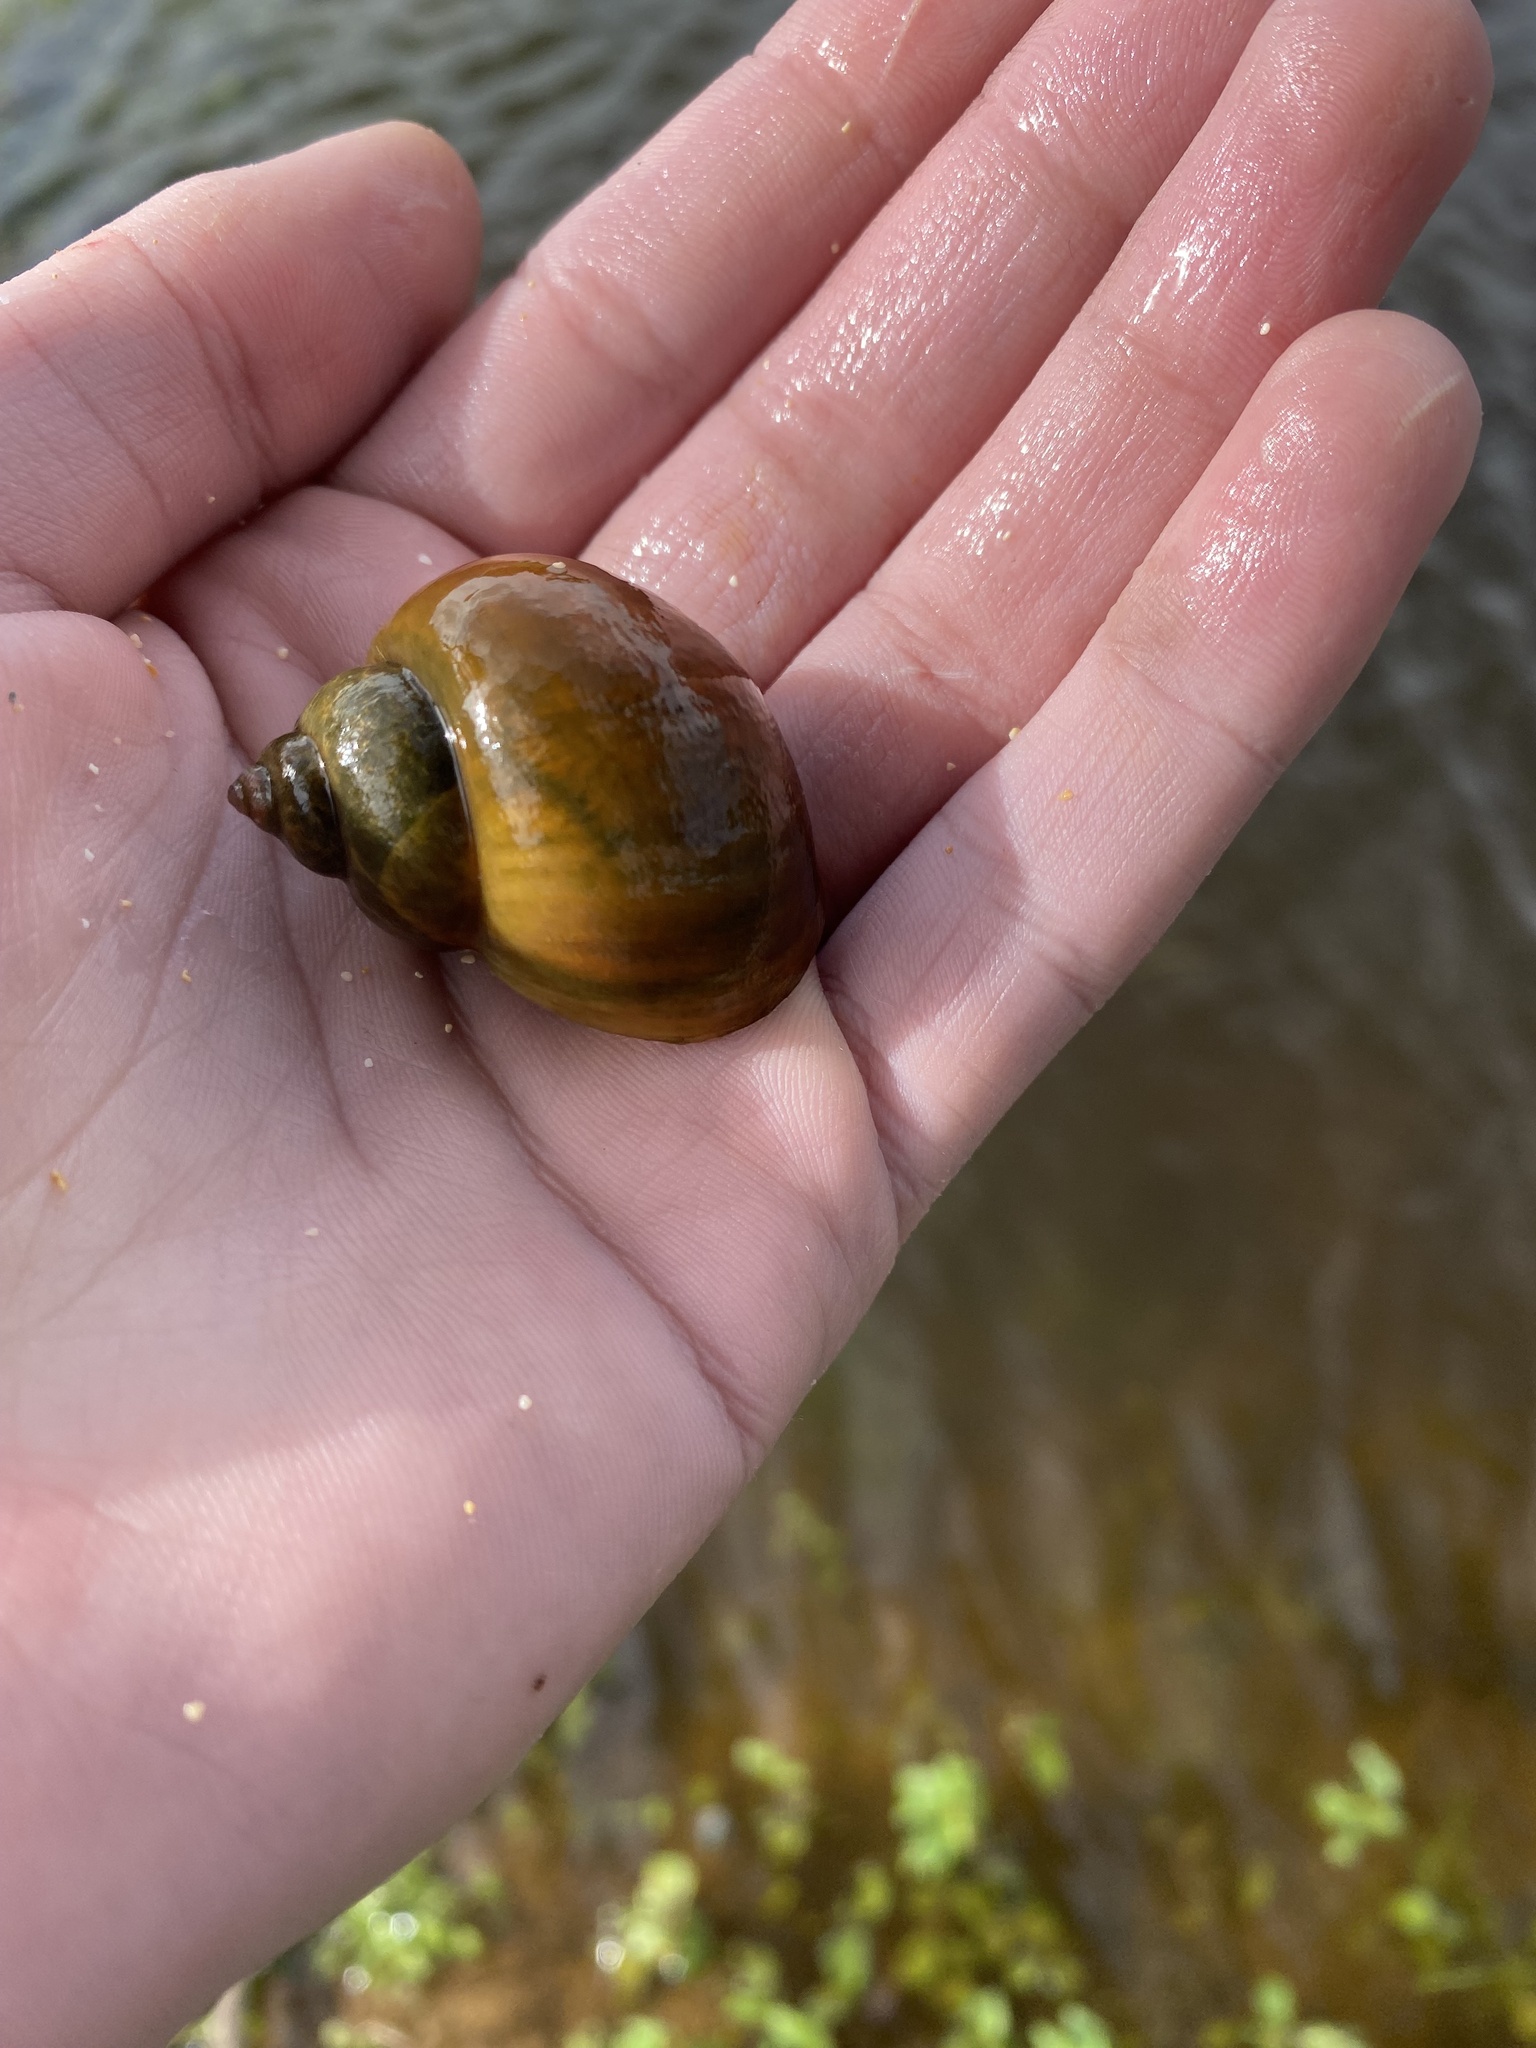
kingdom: Animalia
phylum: Mollusca
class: Gastropoda
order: Architaenioglossa
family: Ampullariidae
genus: Pomacea
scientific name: Pomacea canaliculata
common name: Channeled applesnail
